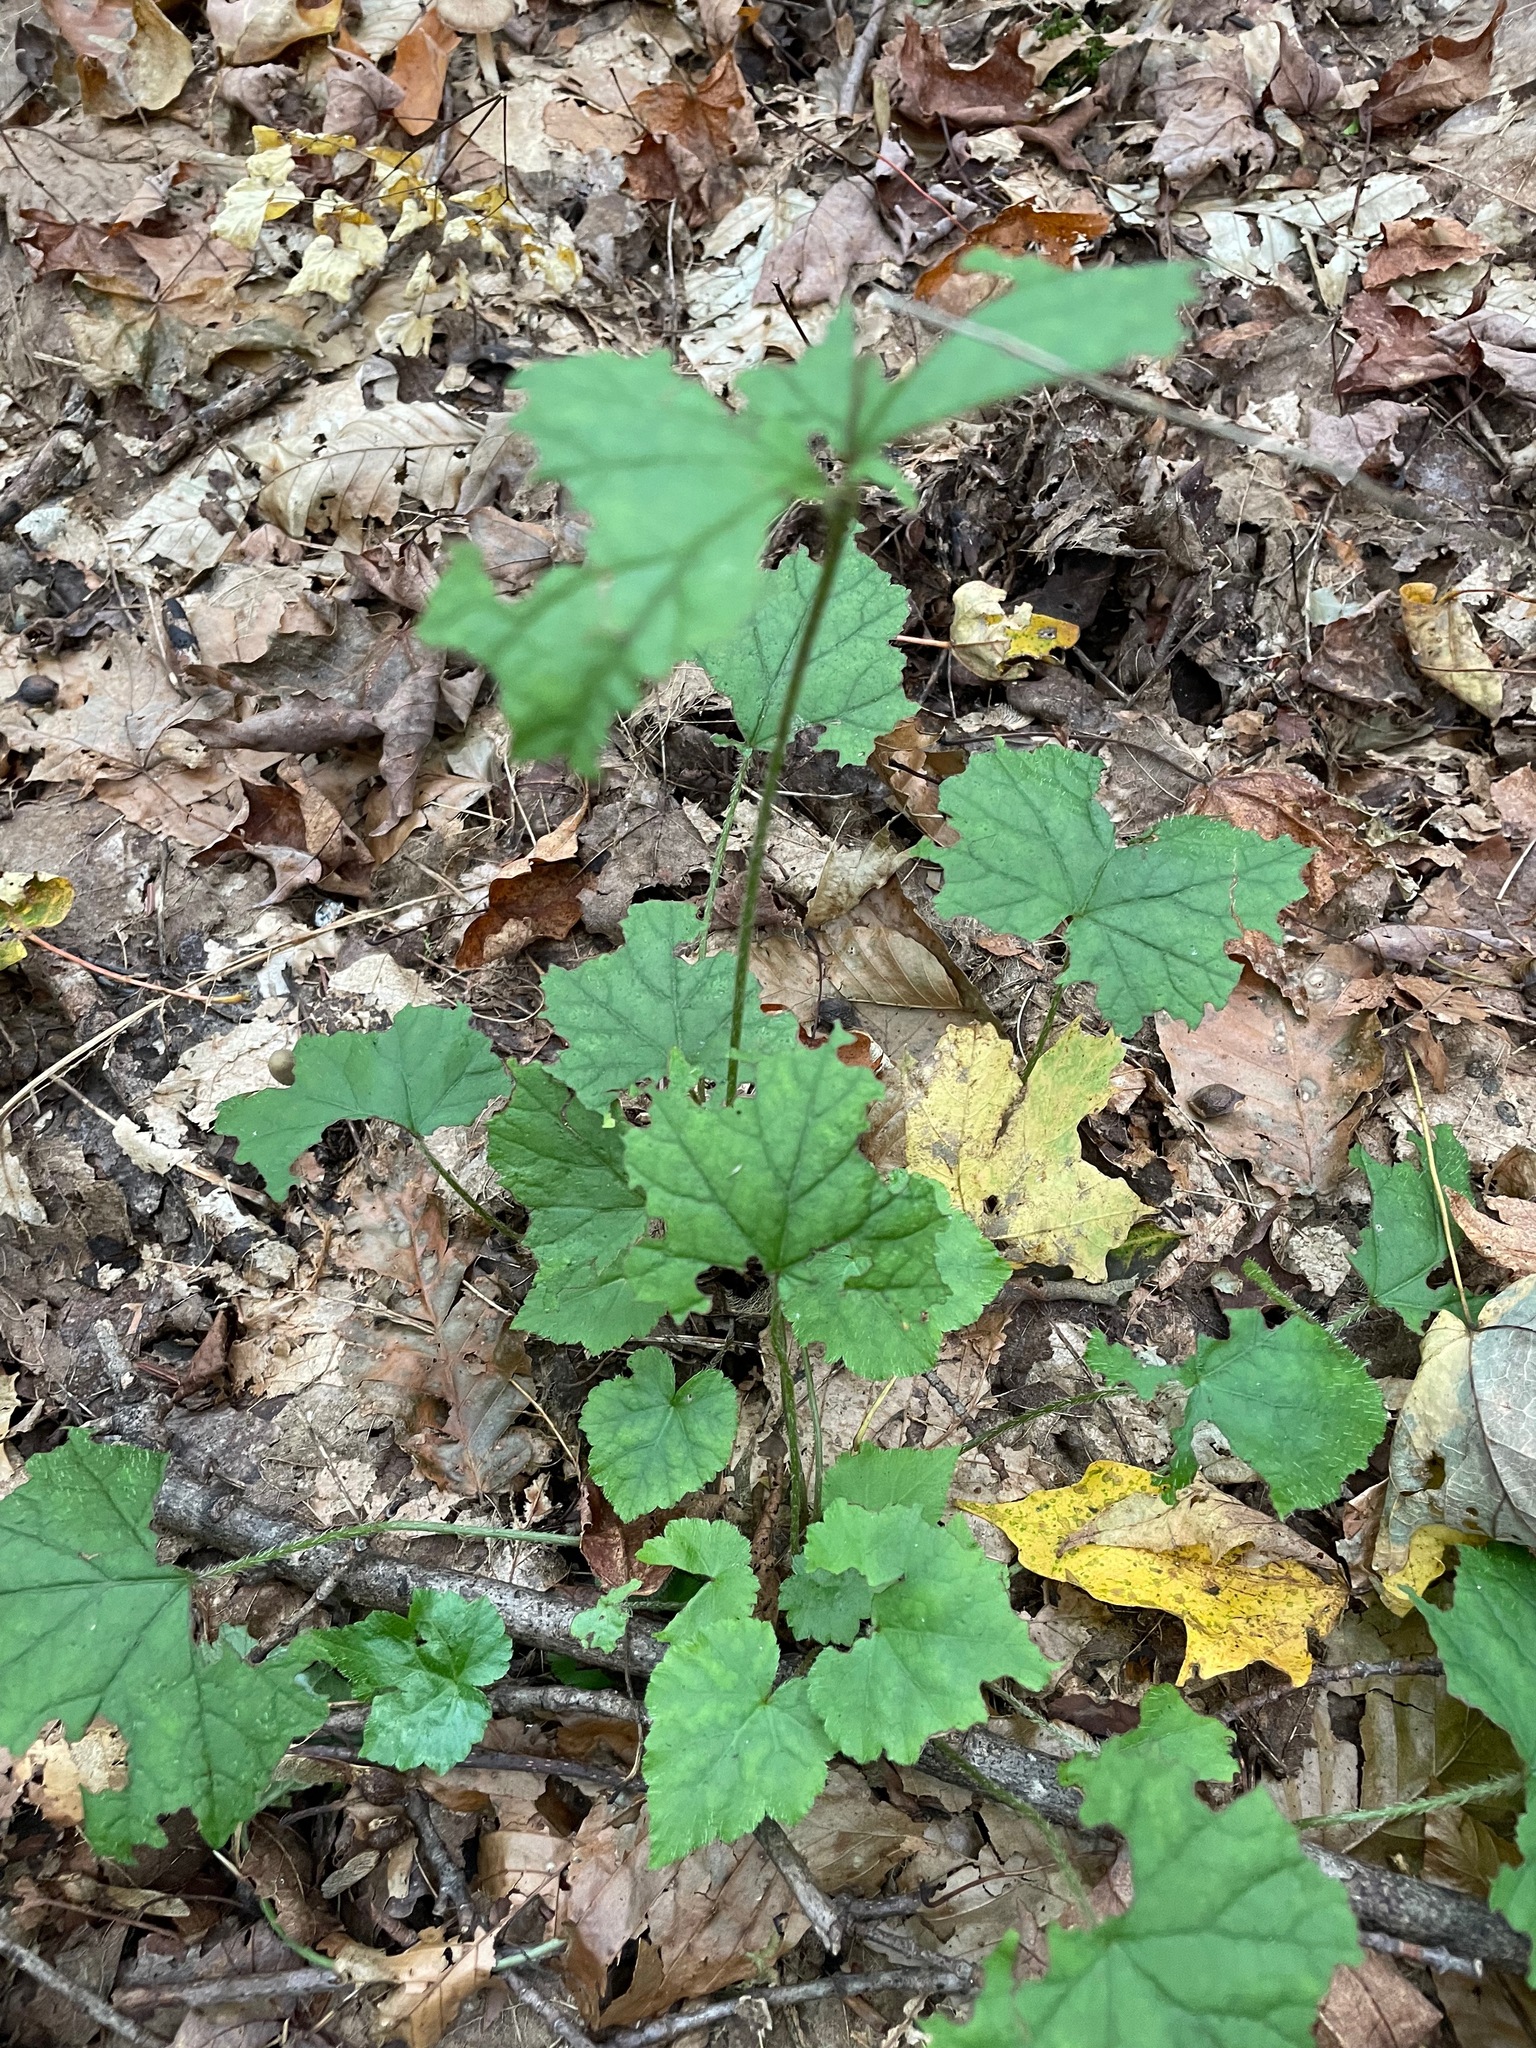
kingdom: Plantae
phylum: Tracheophyta
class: Magnoliopsida
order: Saxifragales
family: Saxifragaceae
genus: Mitella
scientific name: Mitella diphylla
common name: Coolwort
